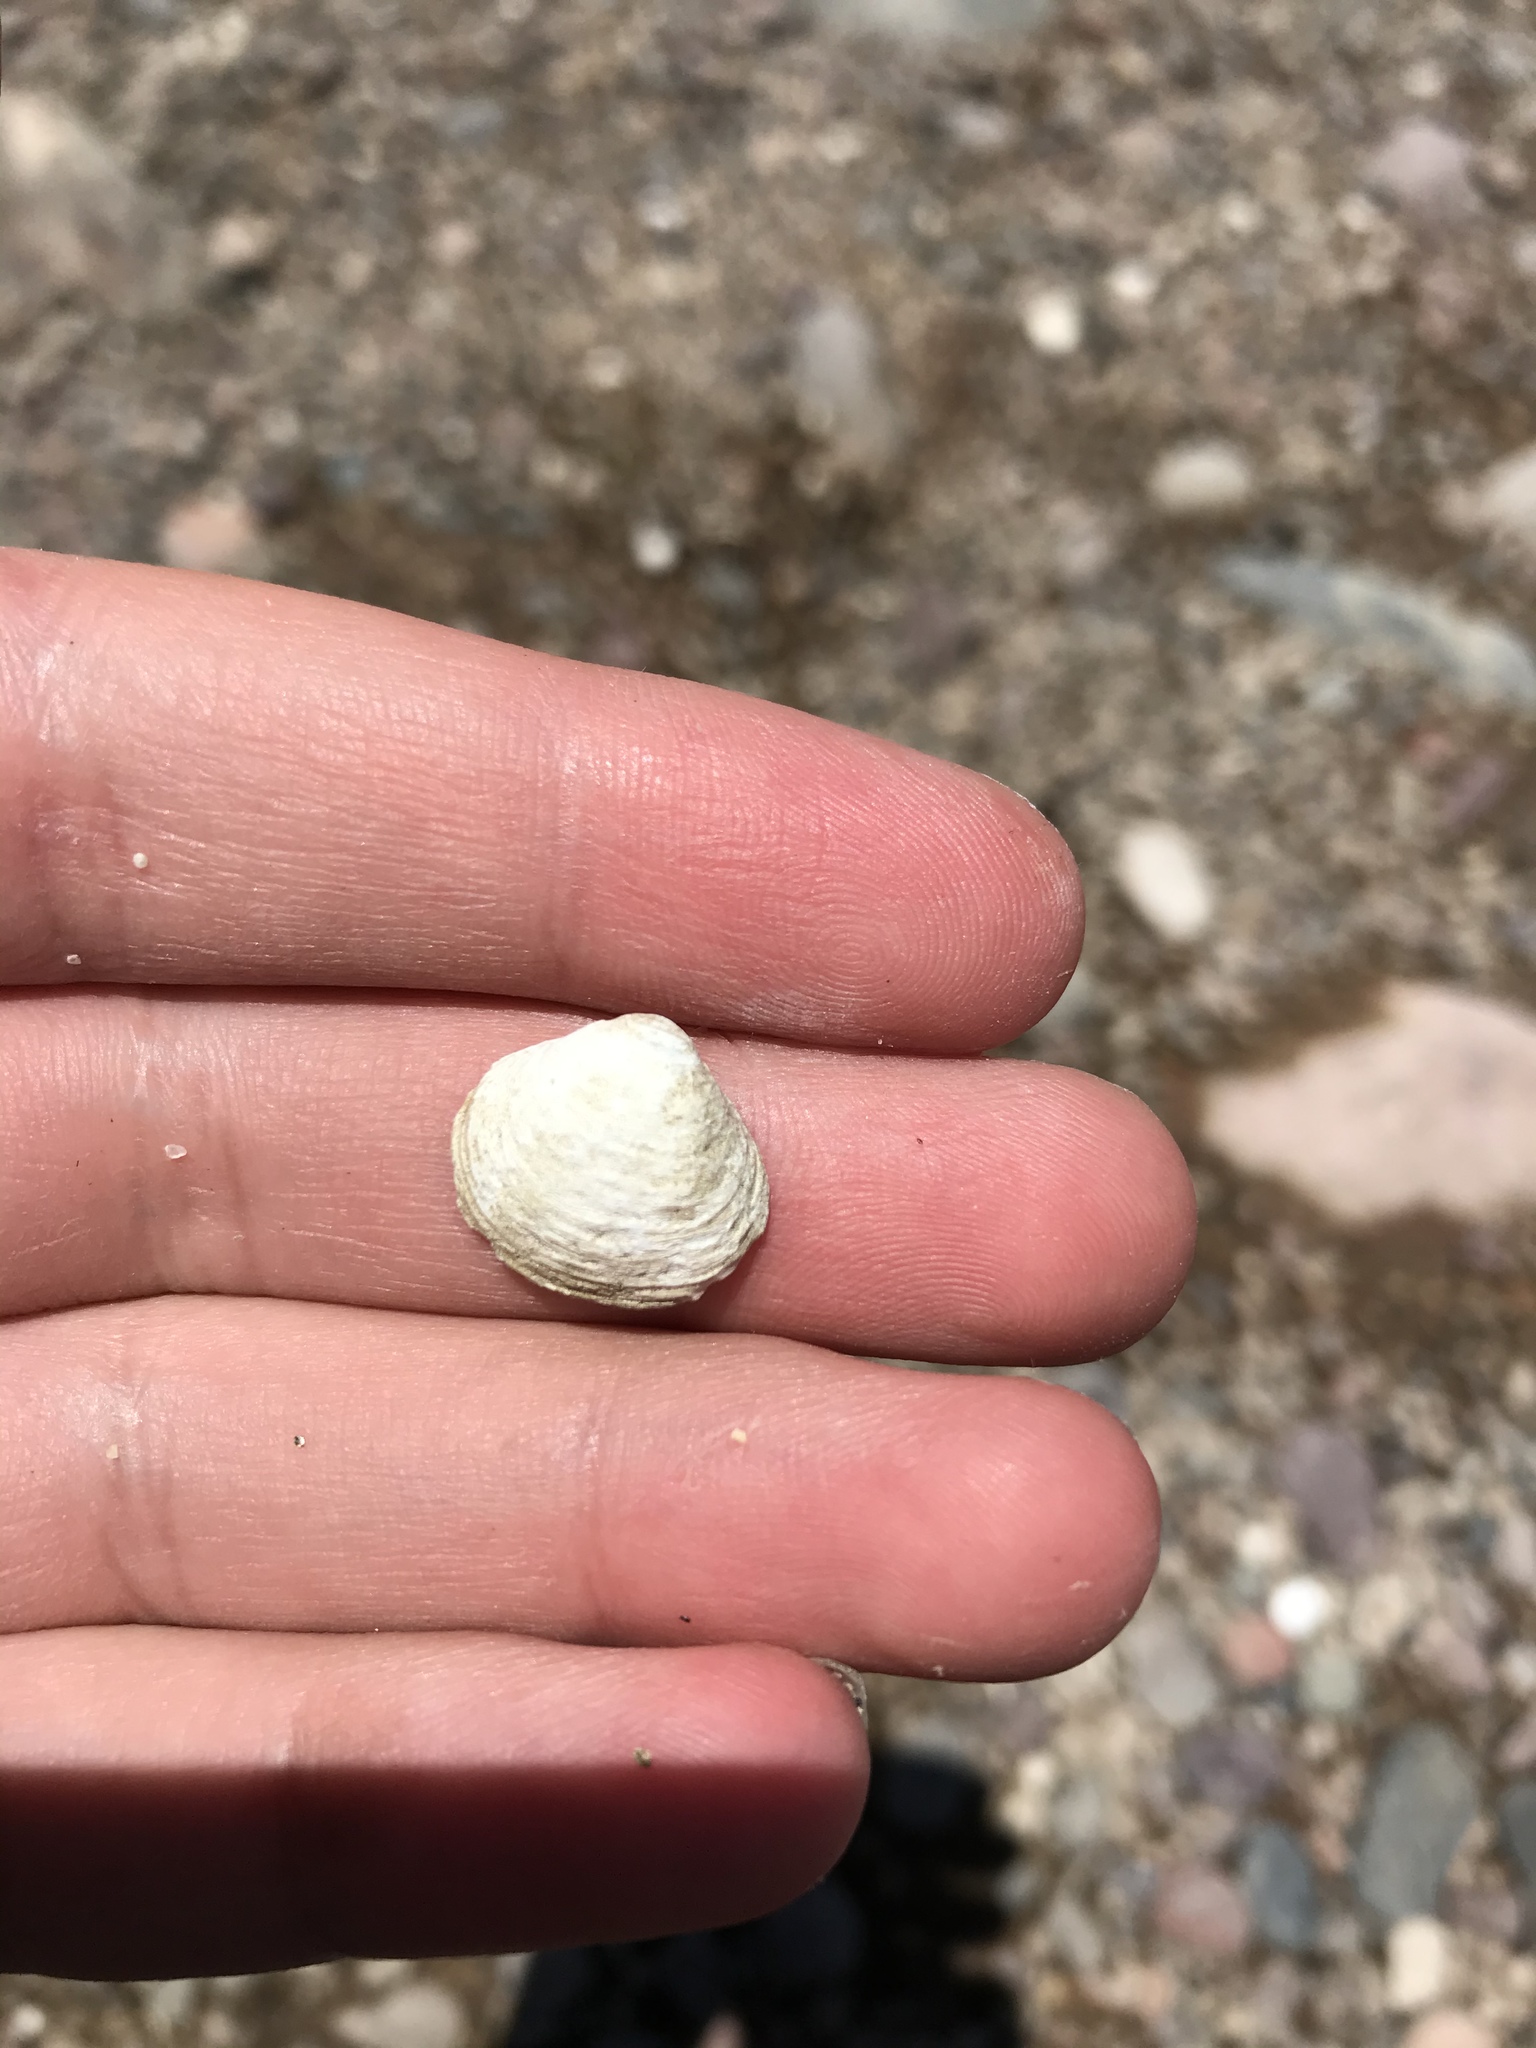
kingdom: Animalia
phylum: Mollusca
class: Bivalvia
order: Venerida
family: Cyrenidae
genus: Corbicula
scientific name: Corbicula fluminea
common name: Asian clam
